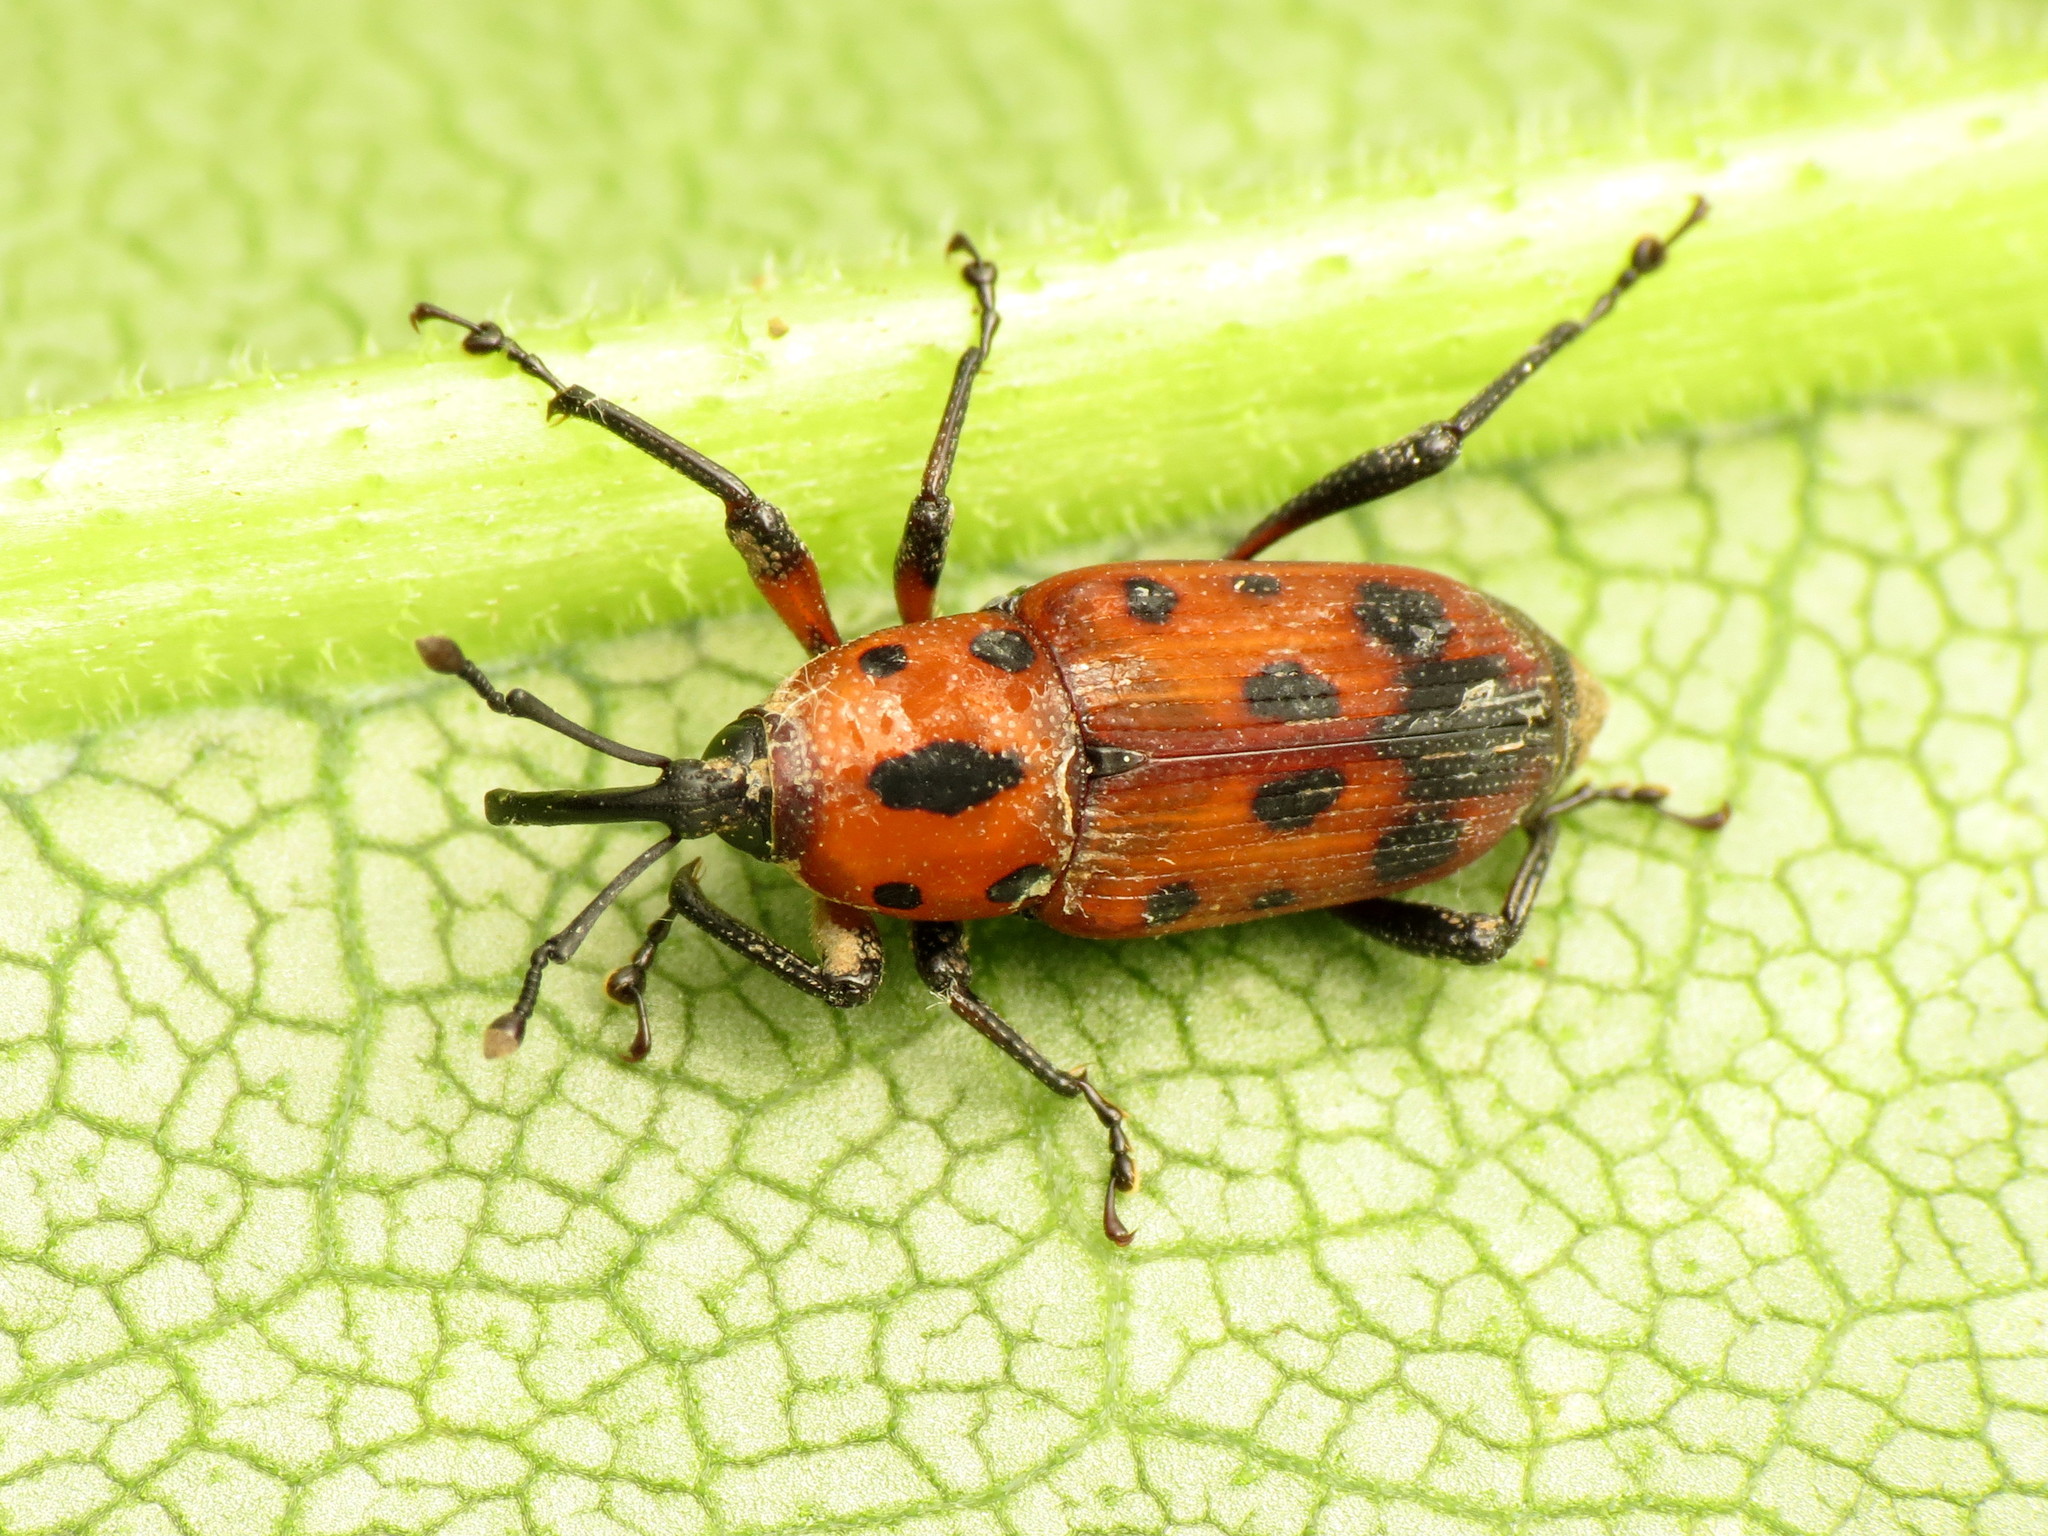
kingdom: Animalia
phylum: Arthropoda
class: Insecta
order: Coleoptera
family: Dryophthoridae
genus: Rhodobaenus
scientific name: Rhodobaenus quinquepunctatus
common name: Cocklebur weevil
